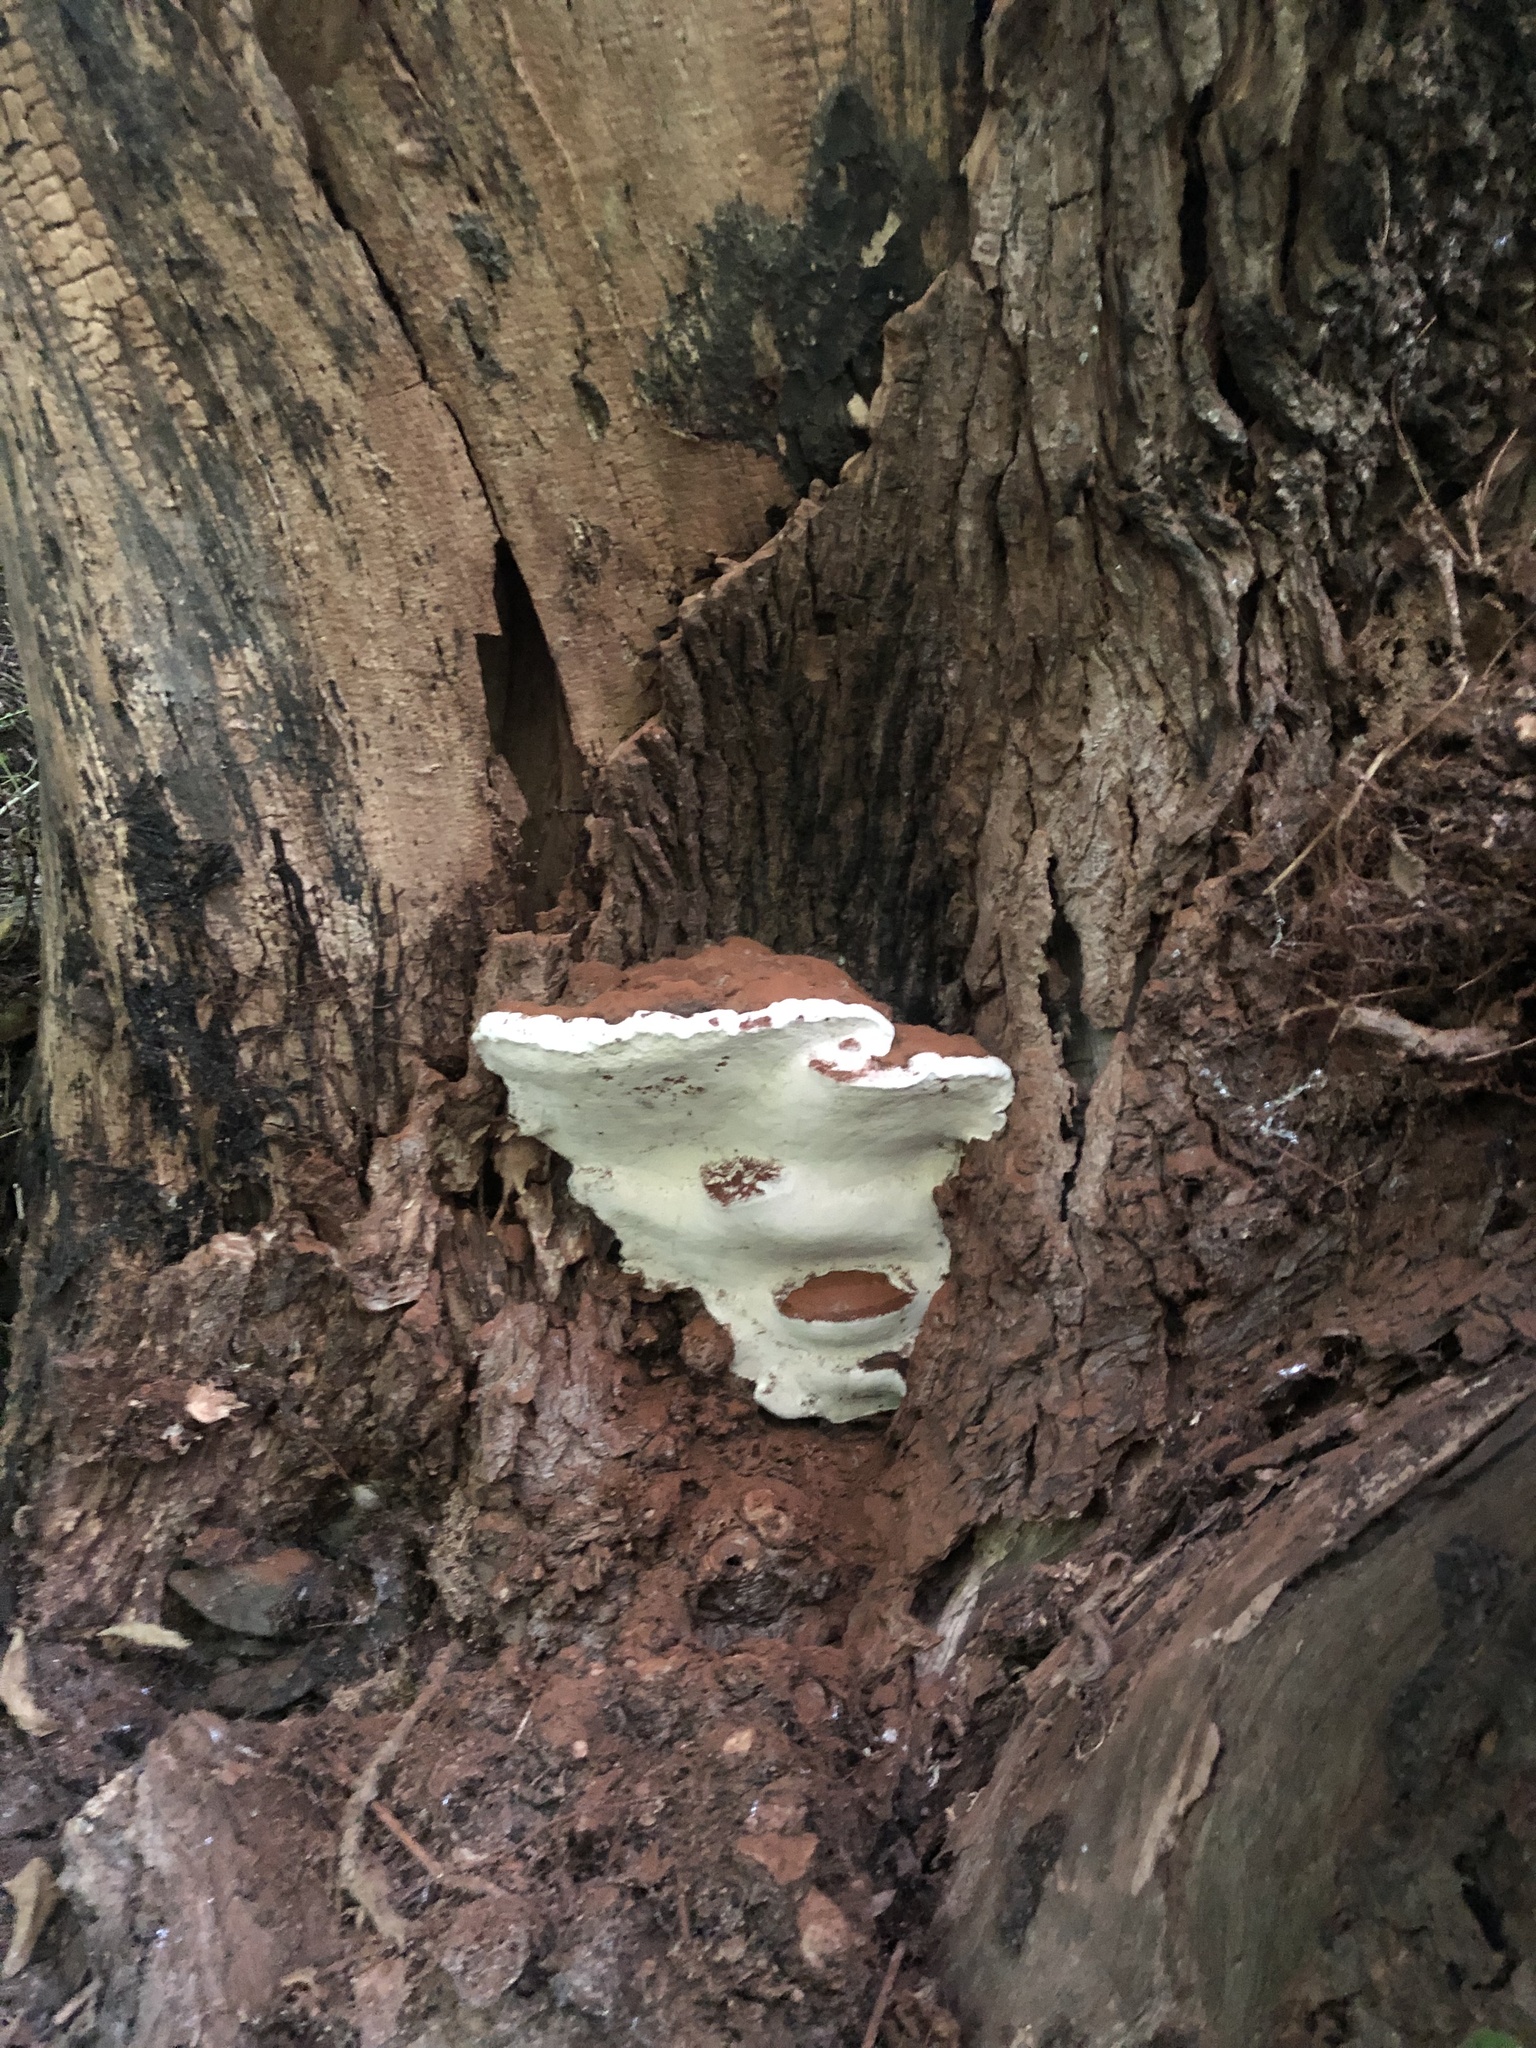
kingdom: Fungi
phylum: Basidiomycota
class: Agaricomycetes
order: Polyporales
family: Polyporaceae
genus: Ganoderma
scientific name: Ganoderma applanatum
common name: Artist's bracket
